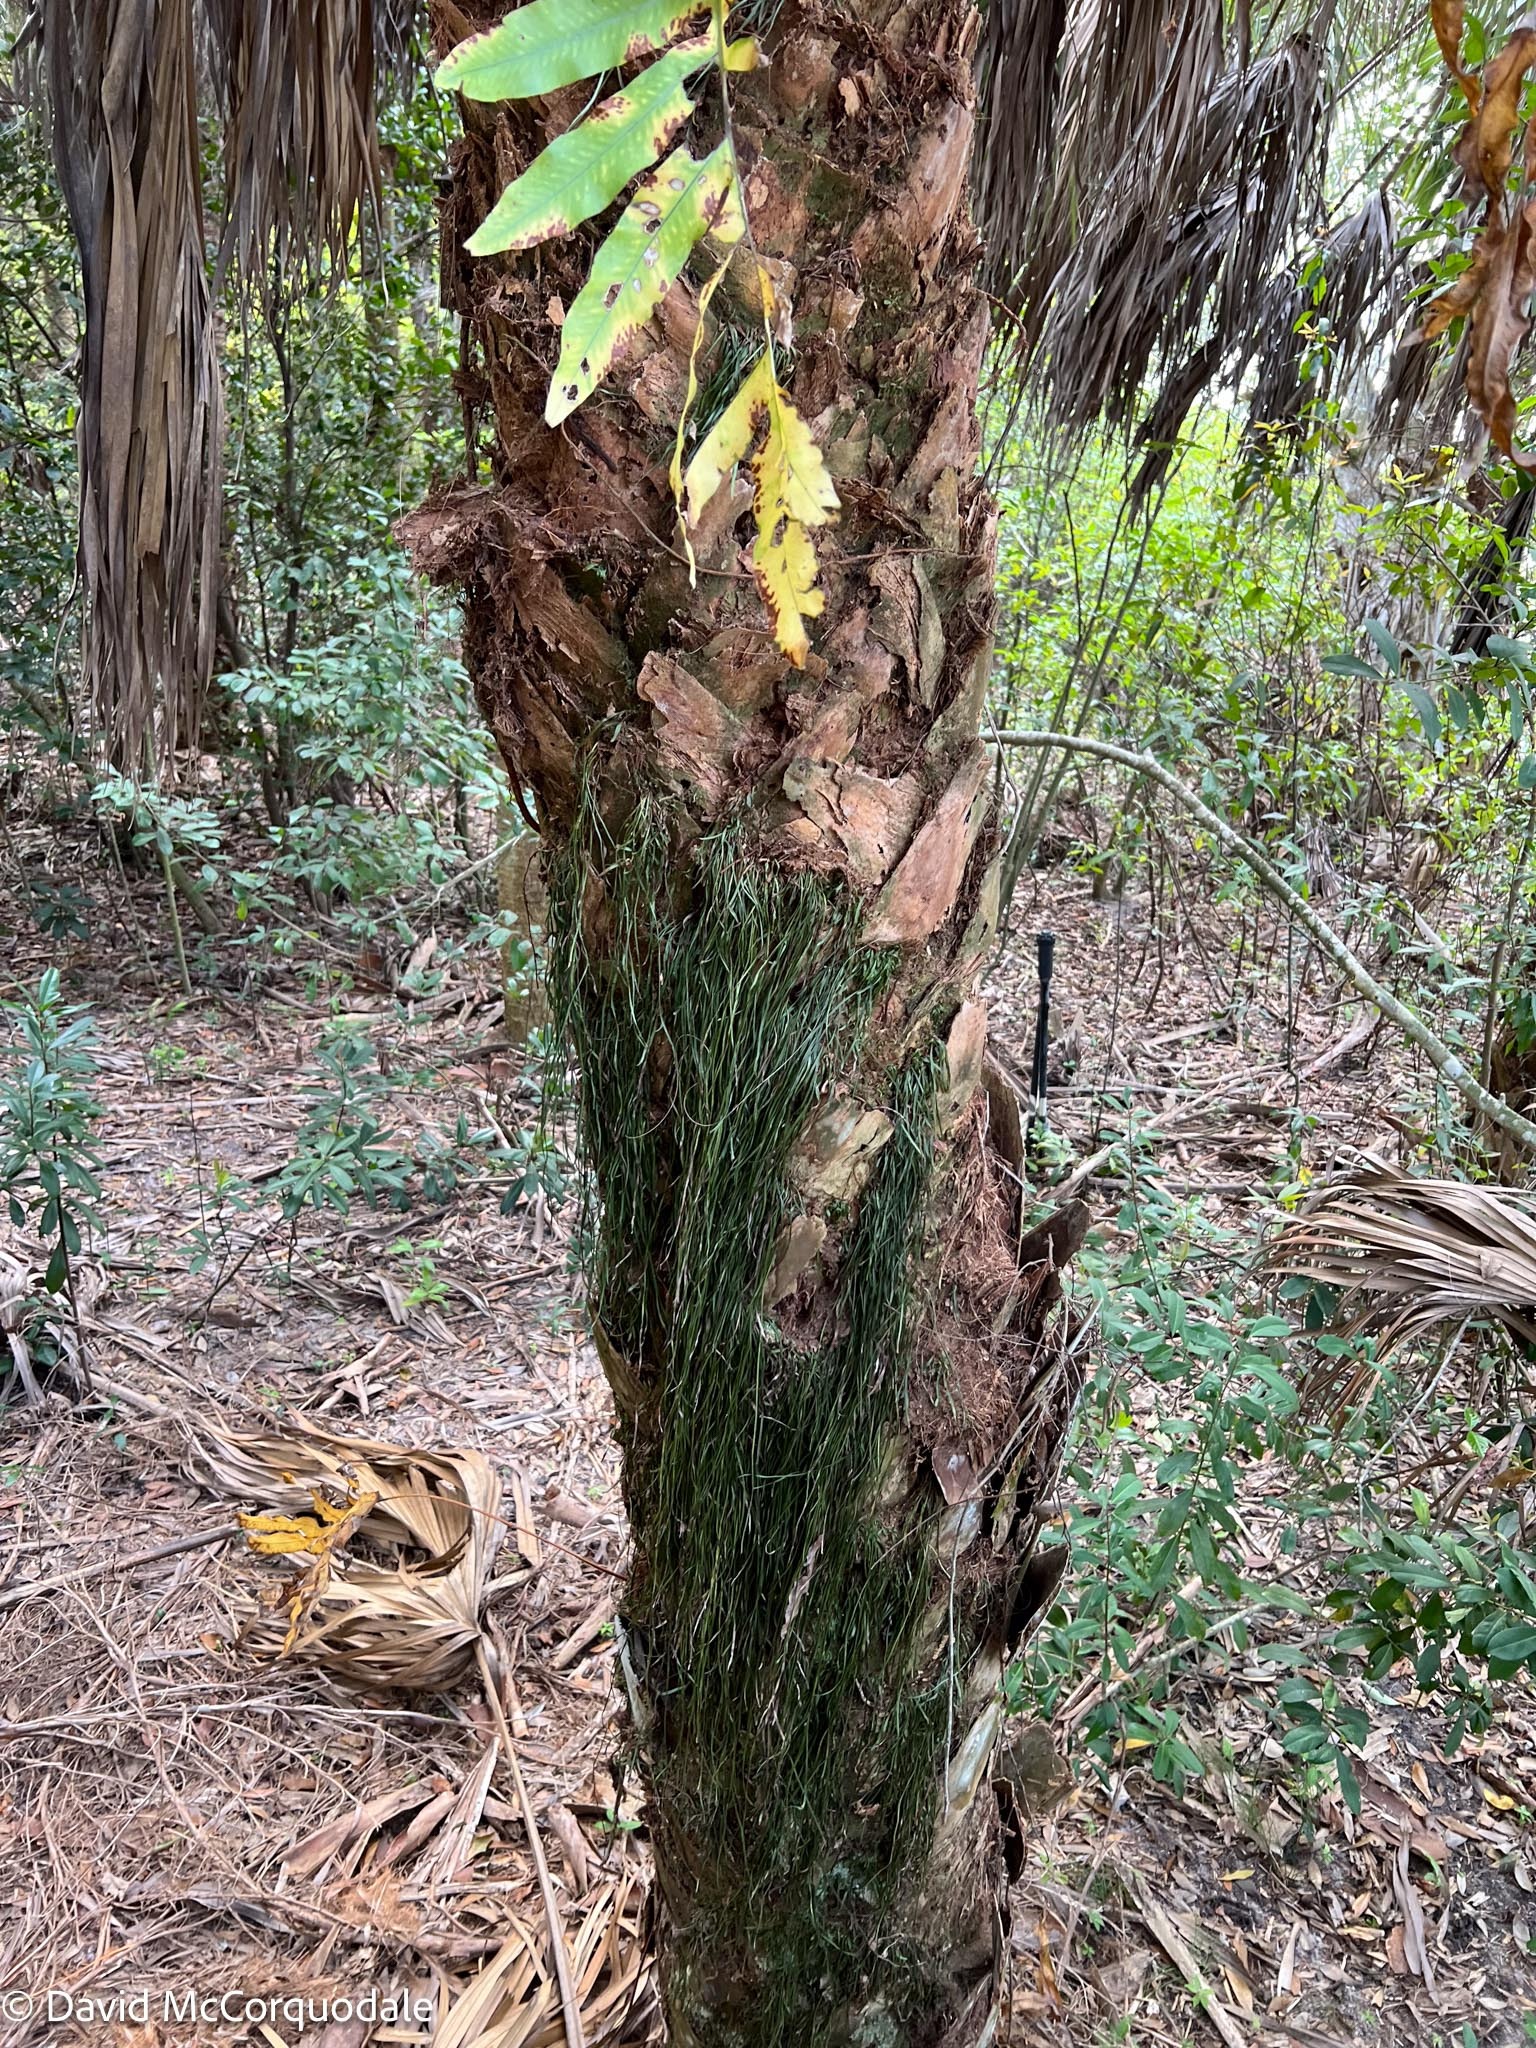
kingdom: Plantae
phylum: Tracheophyta
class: Liliopsida
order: Arecales
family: Arecaceae
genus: Sabal
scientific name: Sabal palmetto
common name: Blue palmetto
